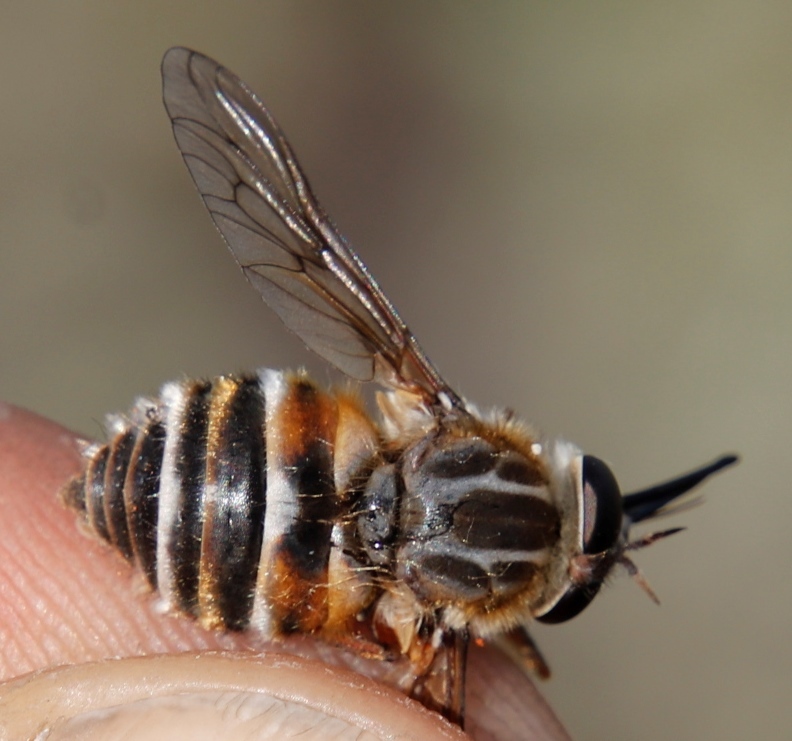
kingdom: Animalia
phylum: Arthropoda
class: Insecta
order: Diptera
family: Tabanidae
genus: Philoliche
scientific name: Philoliche lateralis
